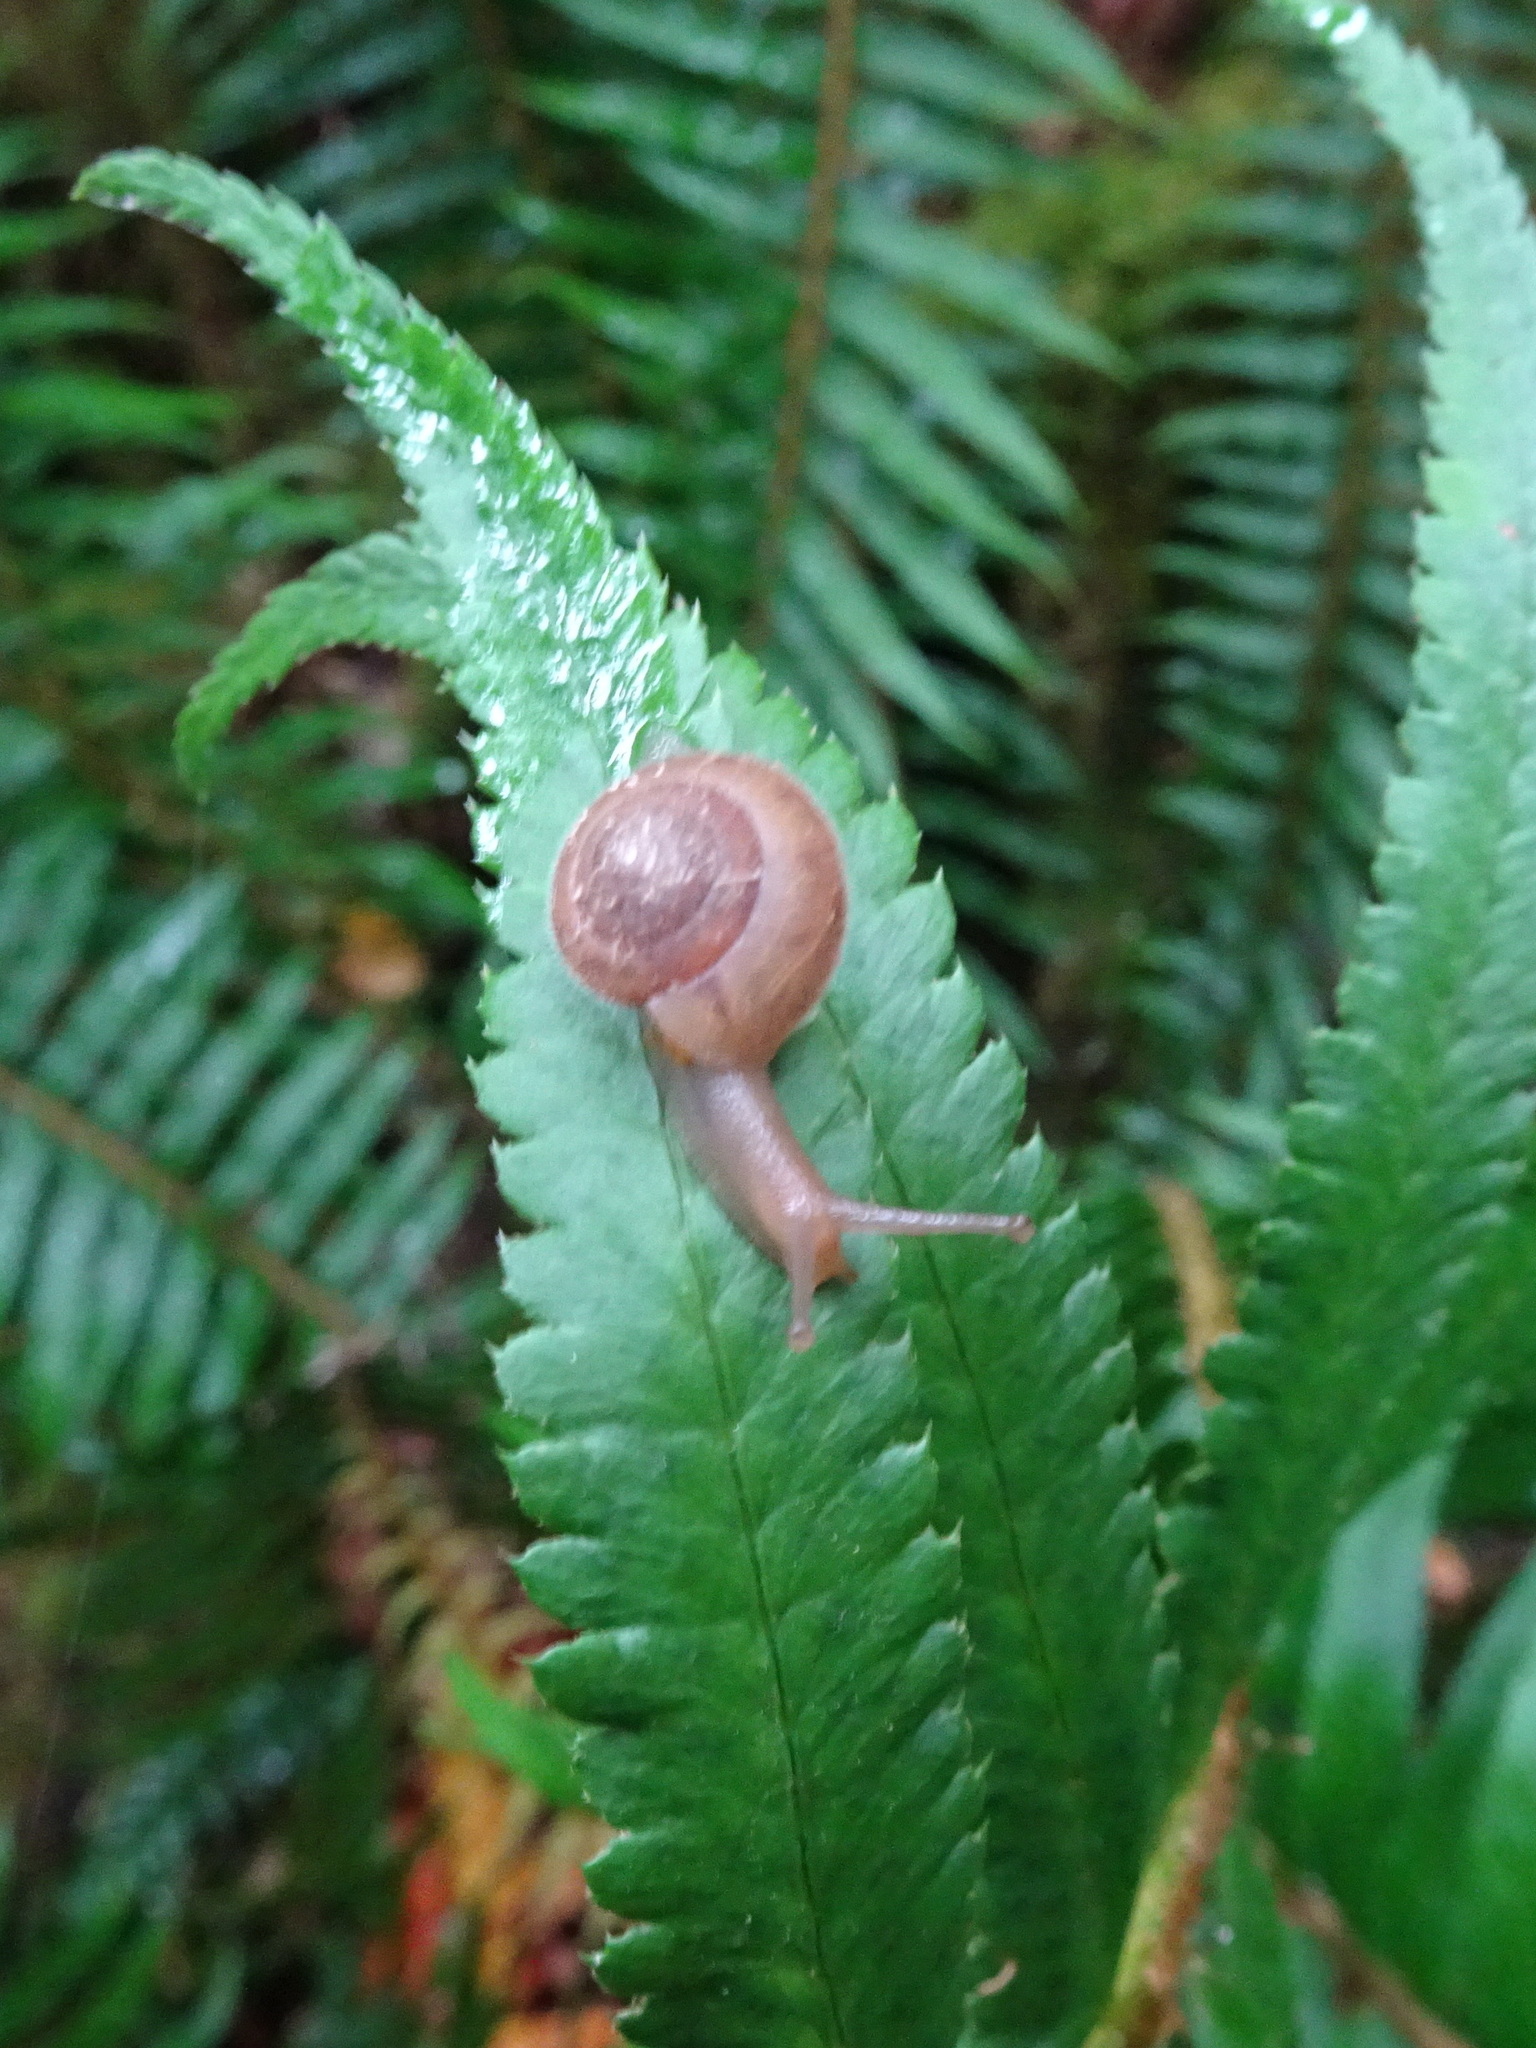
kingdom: Animalia
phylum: Mollusca
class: Gastropoda
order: Stylommatophora
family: Polygyridae
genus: Vespericola
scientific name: Vespericola columbianus
